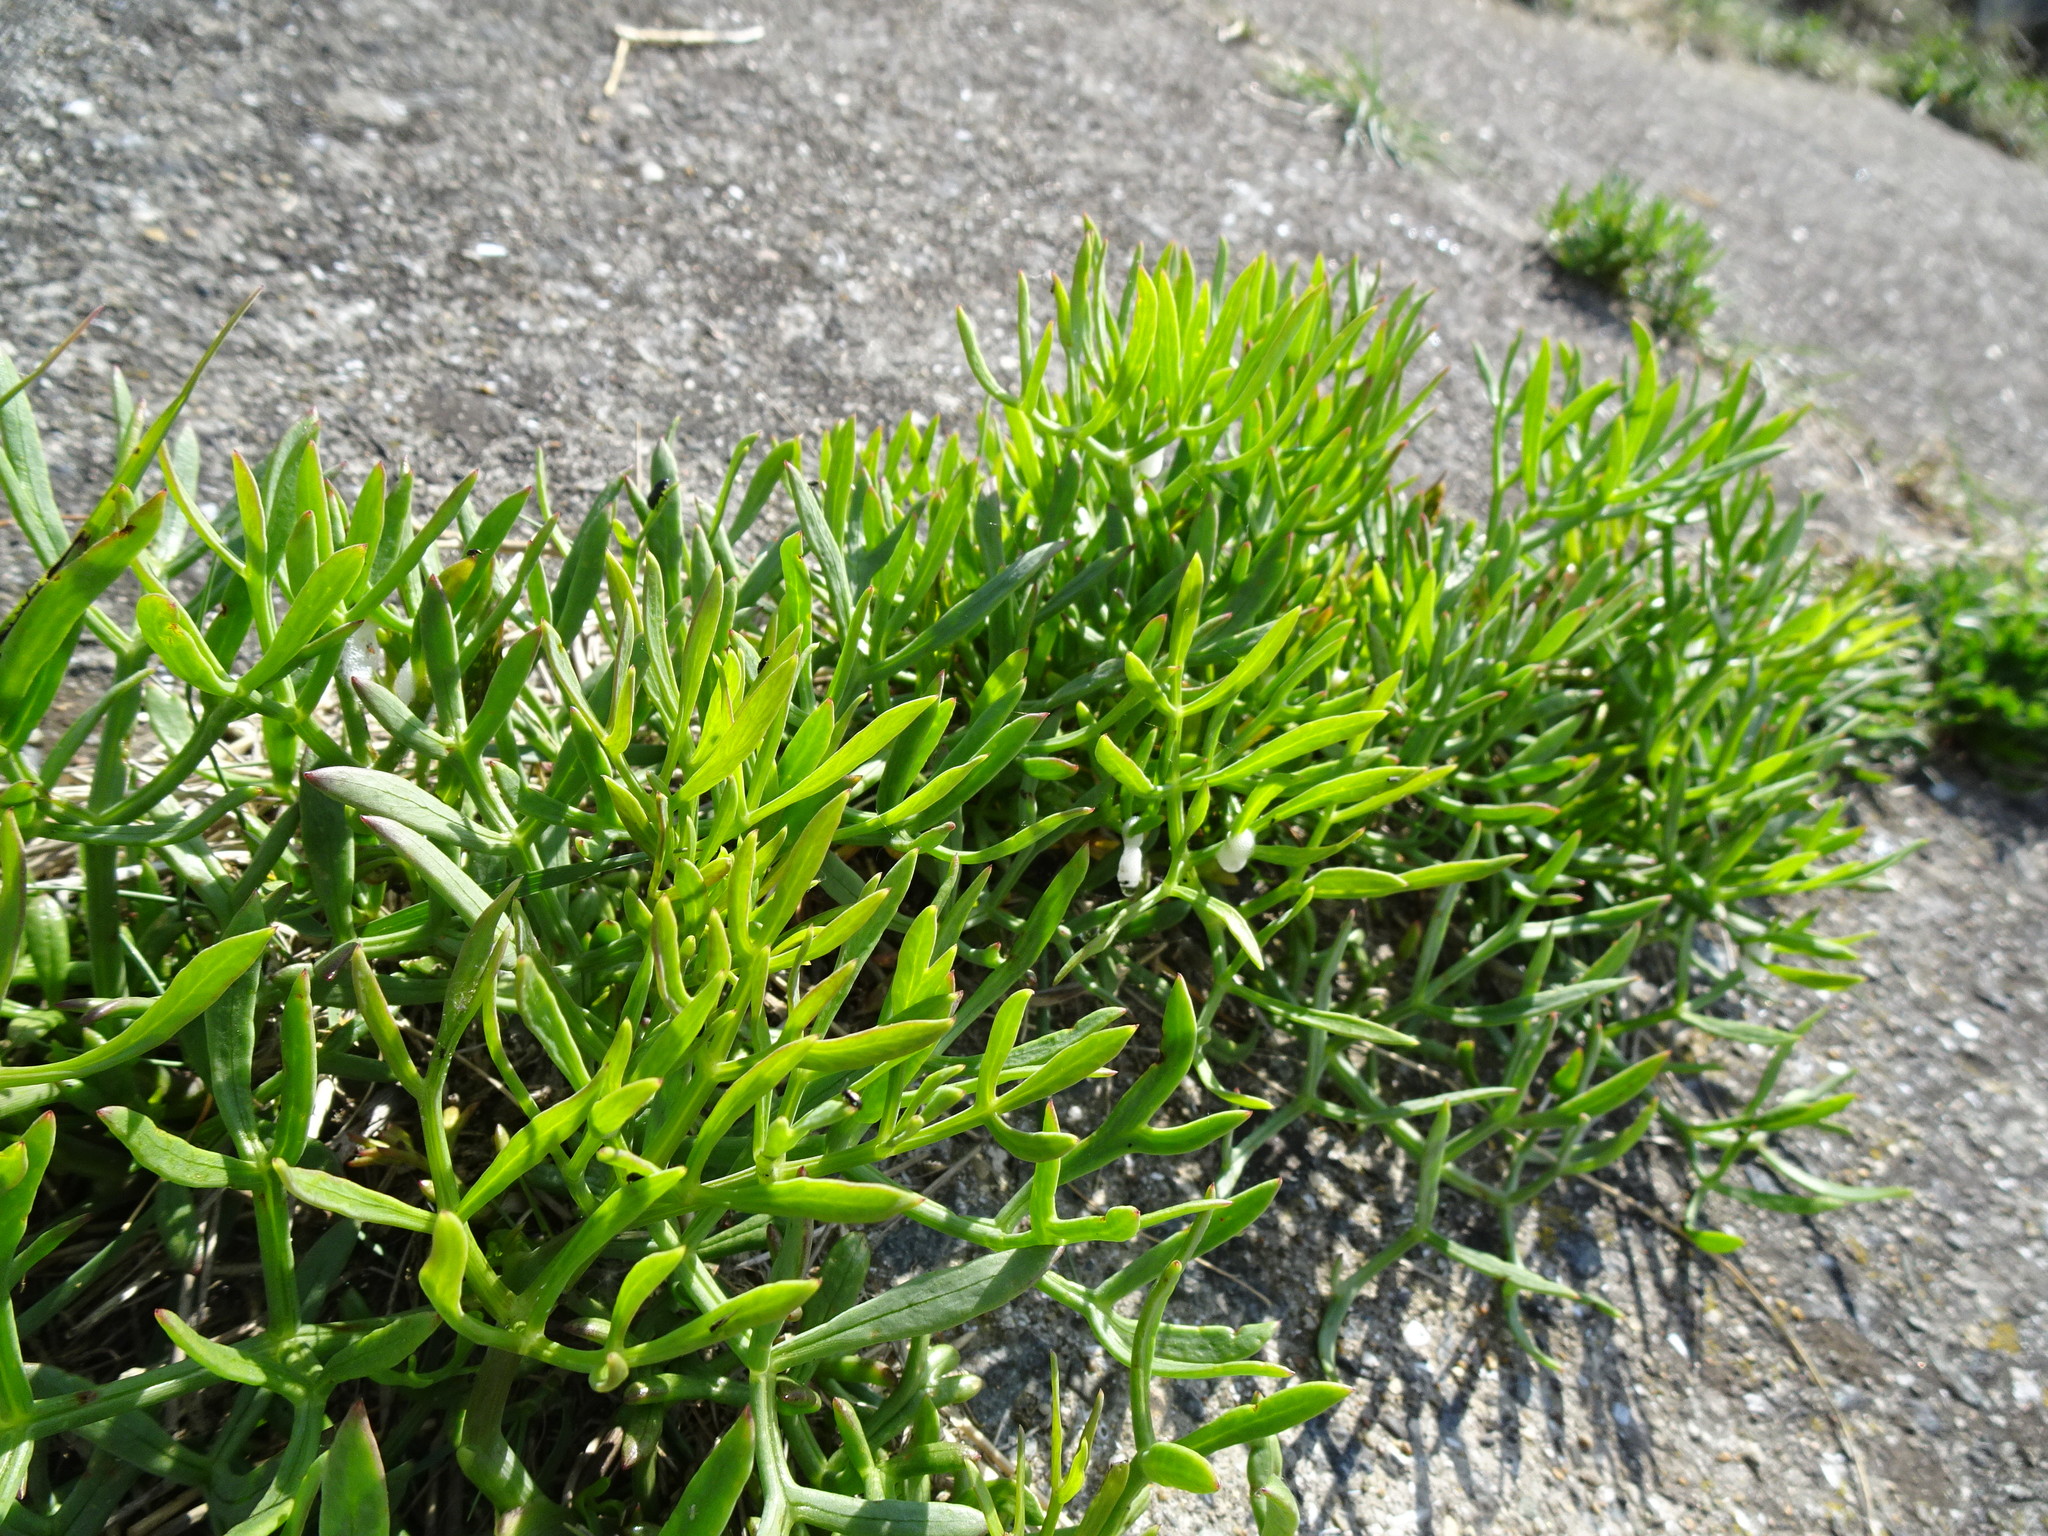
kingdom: Plantae
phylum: Tracheophyta
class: Magnoliopsida
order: Apiales
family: Apiaceae
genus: Crithmum
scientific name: Crithmum maritimum
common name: Rock samphire
